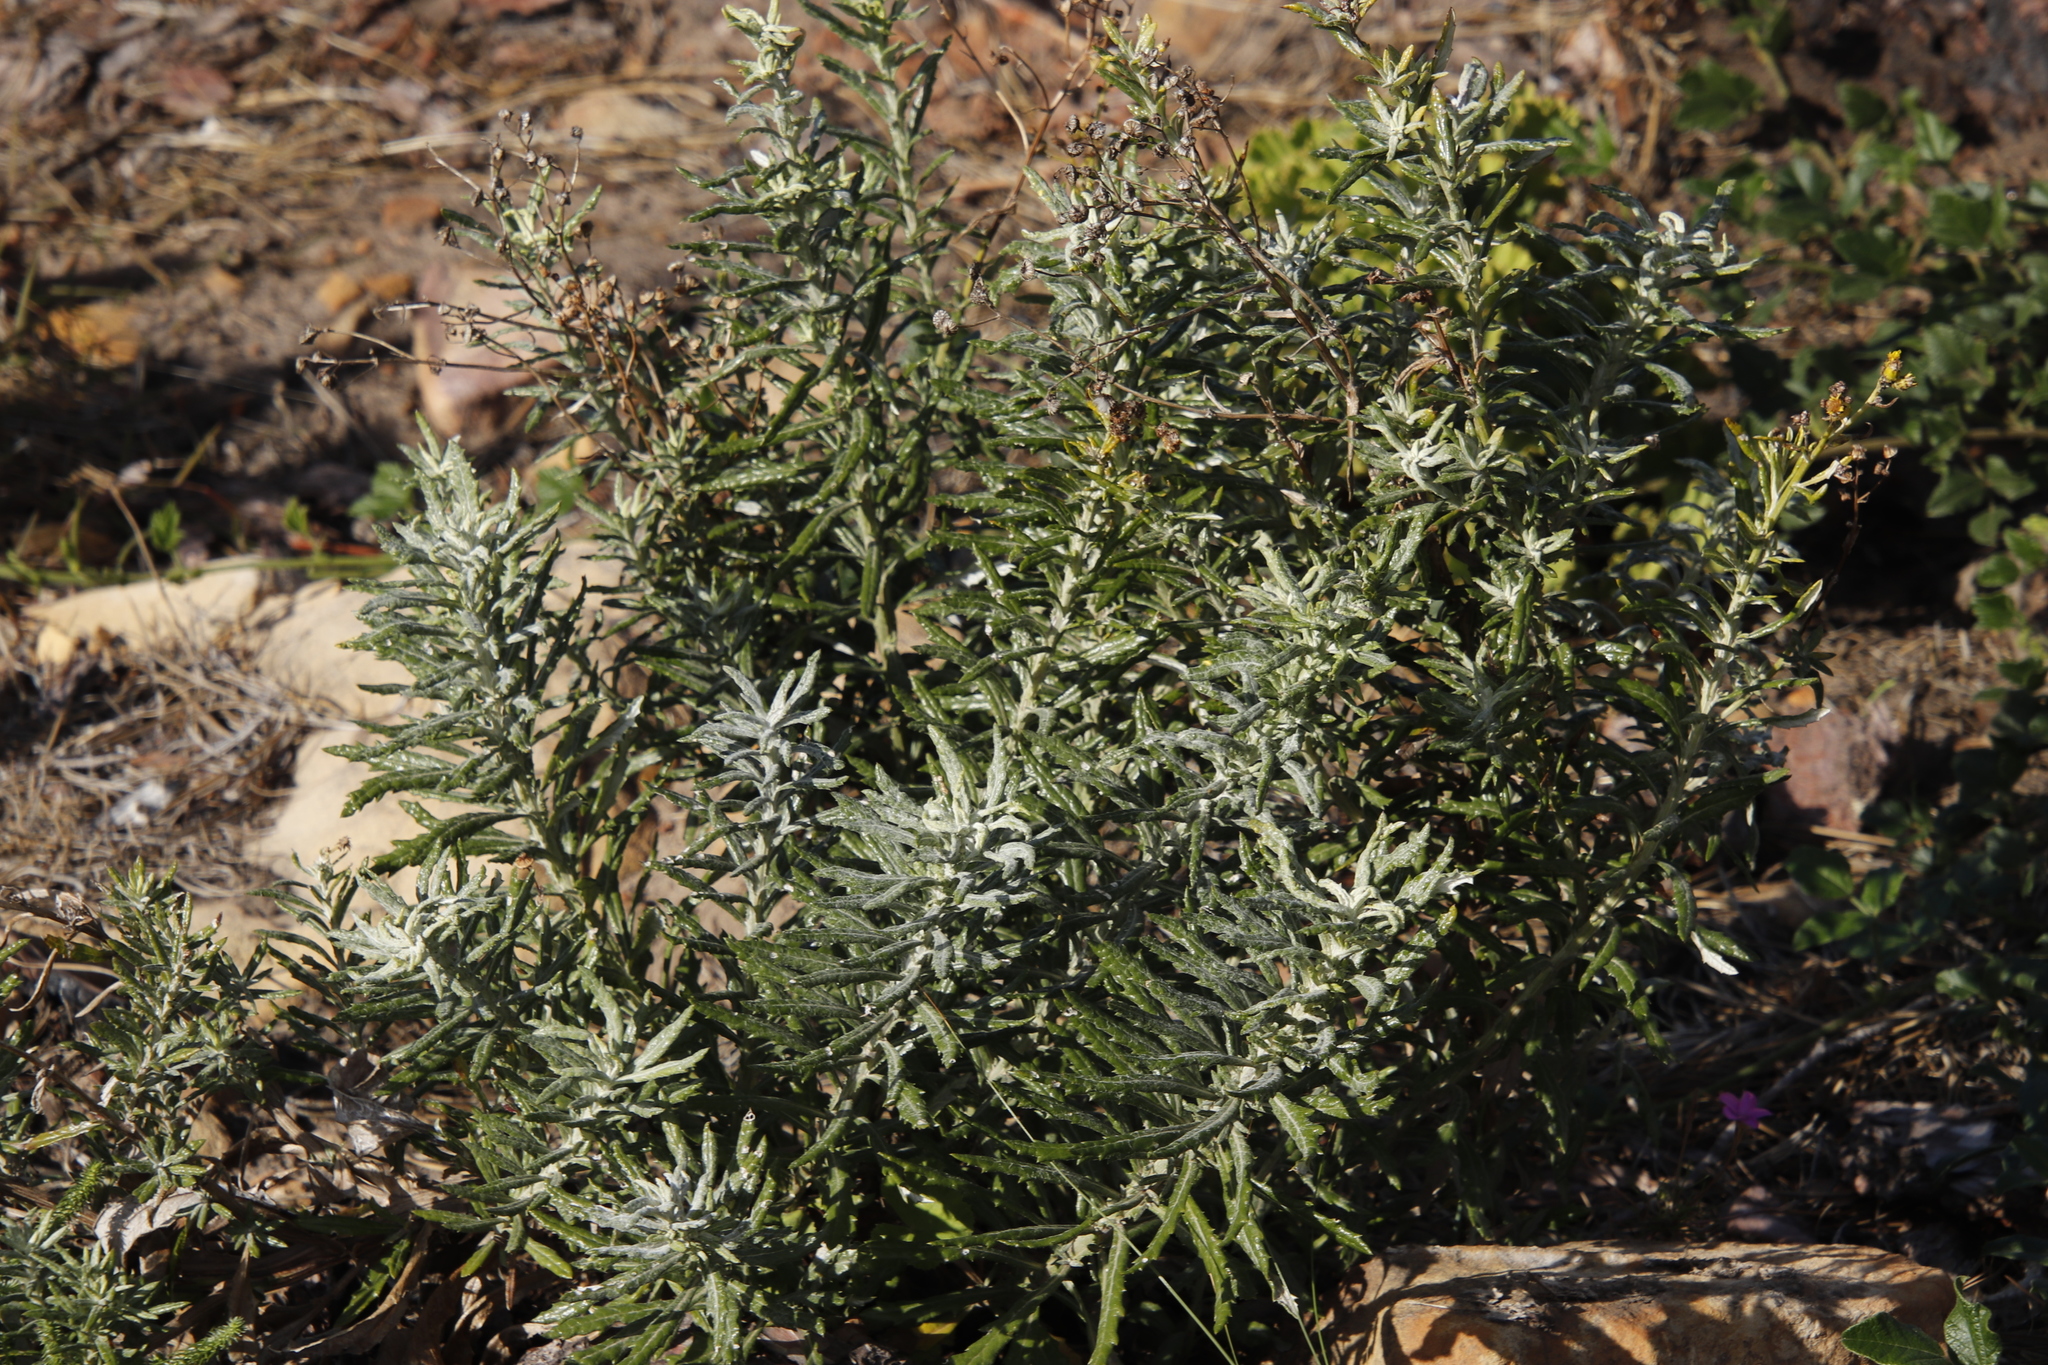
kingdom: Plantae
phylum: Tracheophyta
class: Magnoliopsida
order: Asterales
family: Asteraceae
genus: Senecio
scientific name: Senecio pterophorus
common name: Shoddy ragwort
